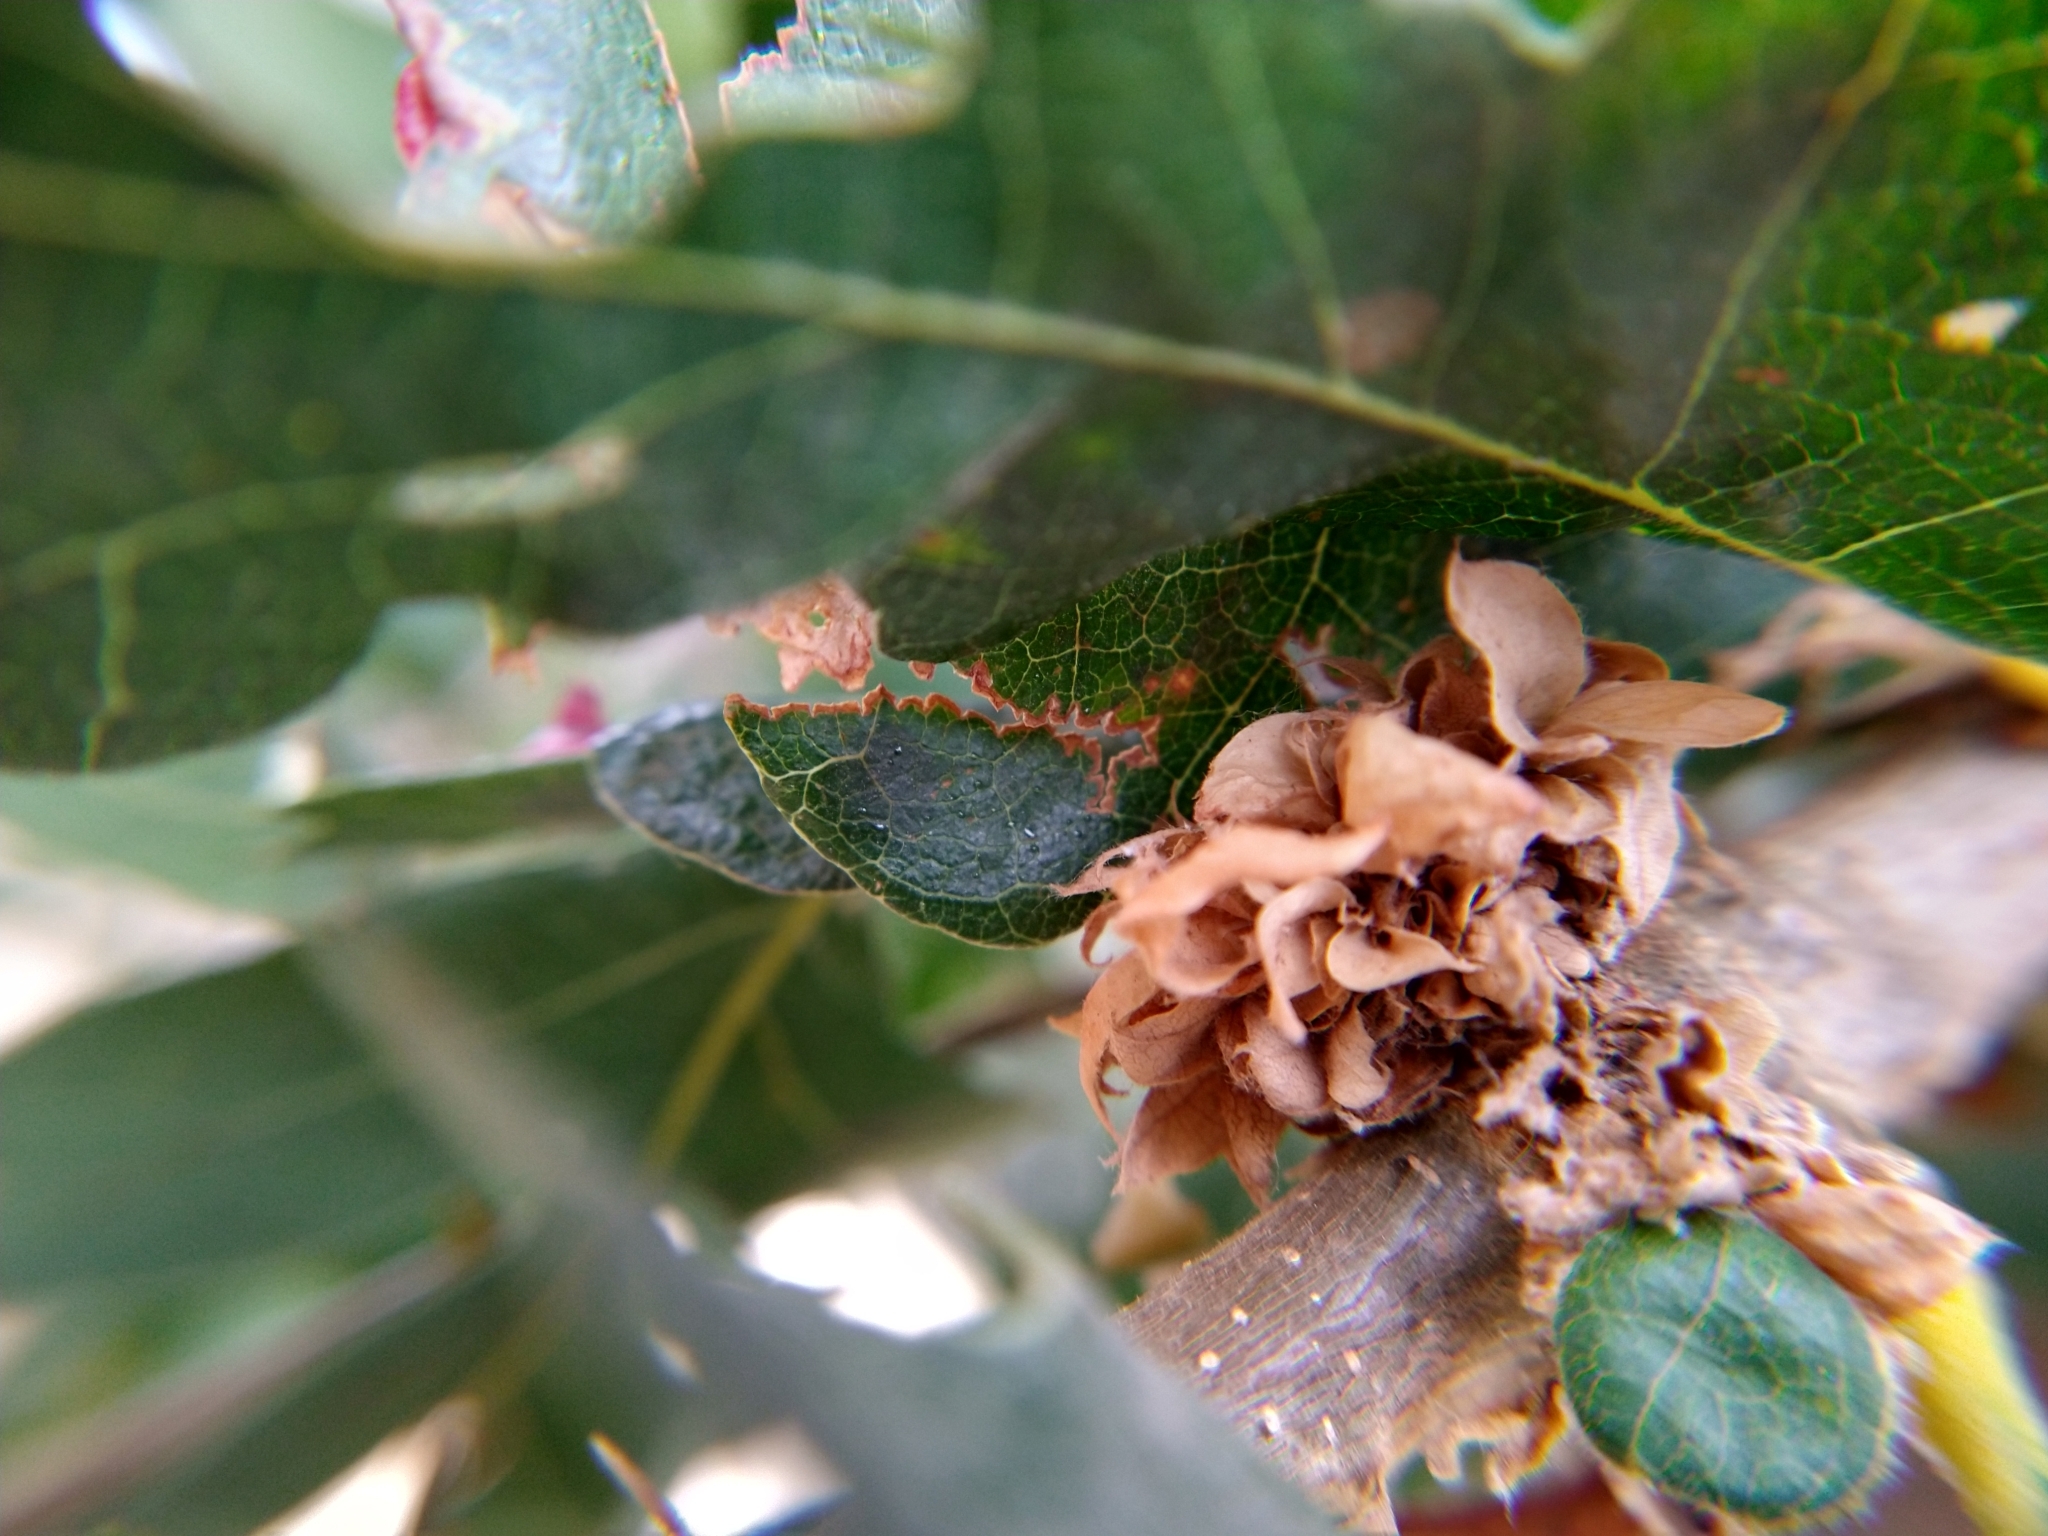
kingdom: Animalia
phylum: Arthropoda
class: Insecta
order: Hymenoptera
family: Cynipidae
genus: Andricus
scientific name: Andricus
